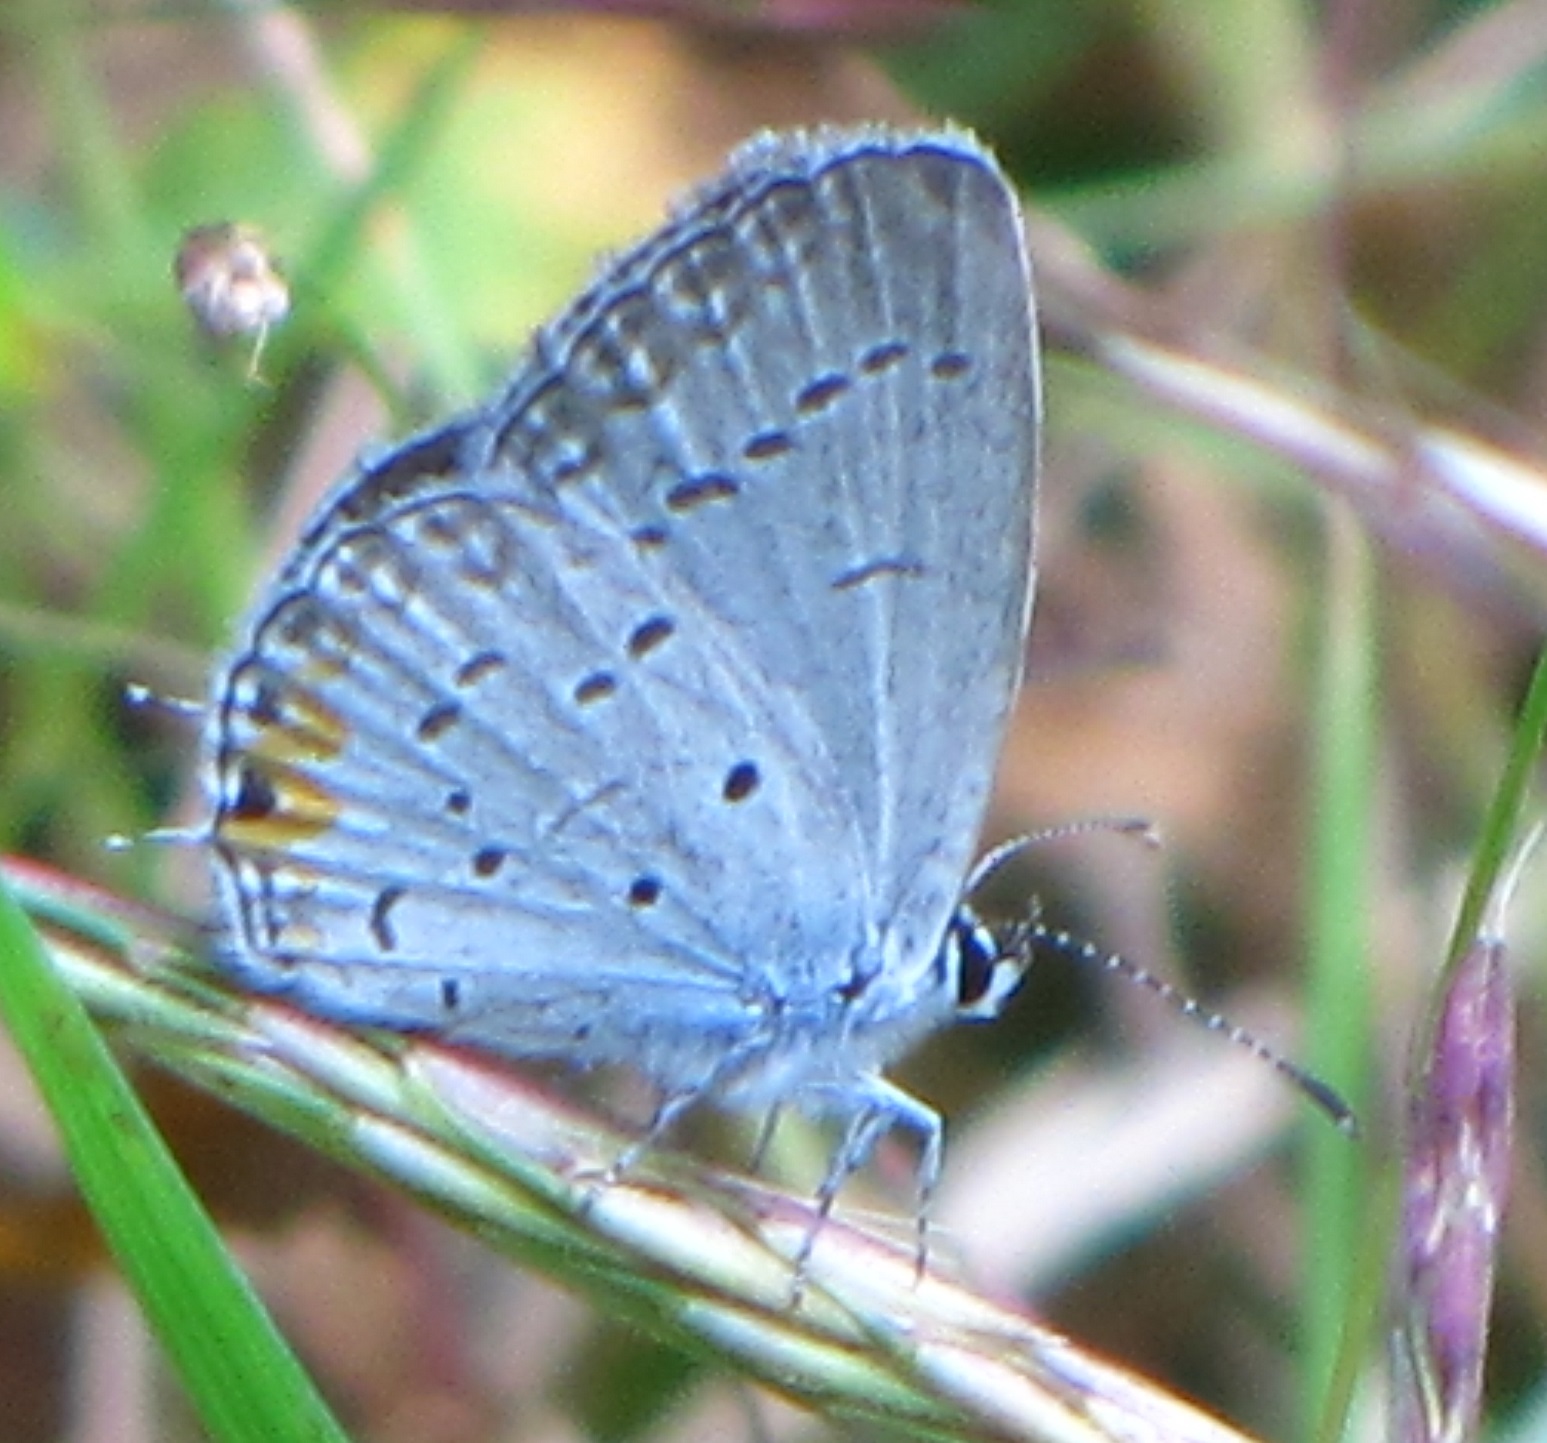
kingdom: Animalia
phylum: Arthropoda
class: Insecta
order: Lepidoptera
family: Lycaenidae
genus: Elkalyce
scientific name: Elkalyce comyntas
